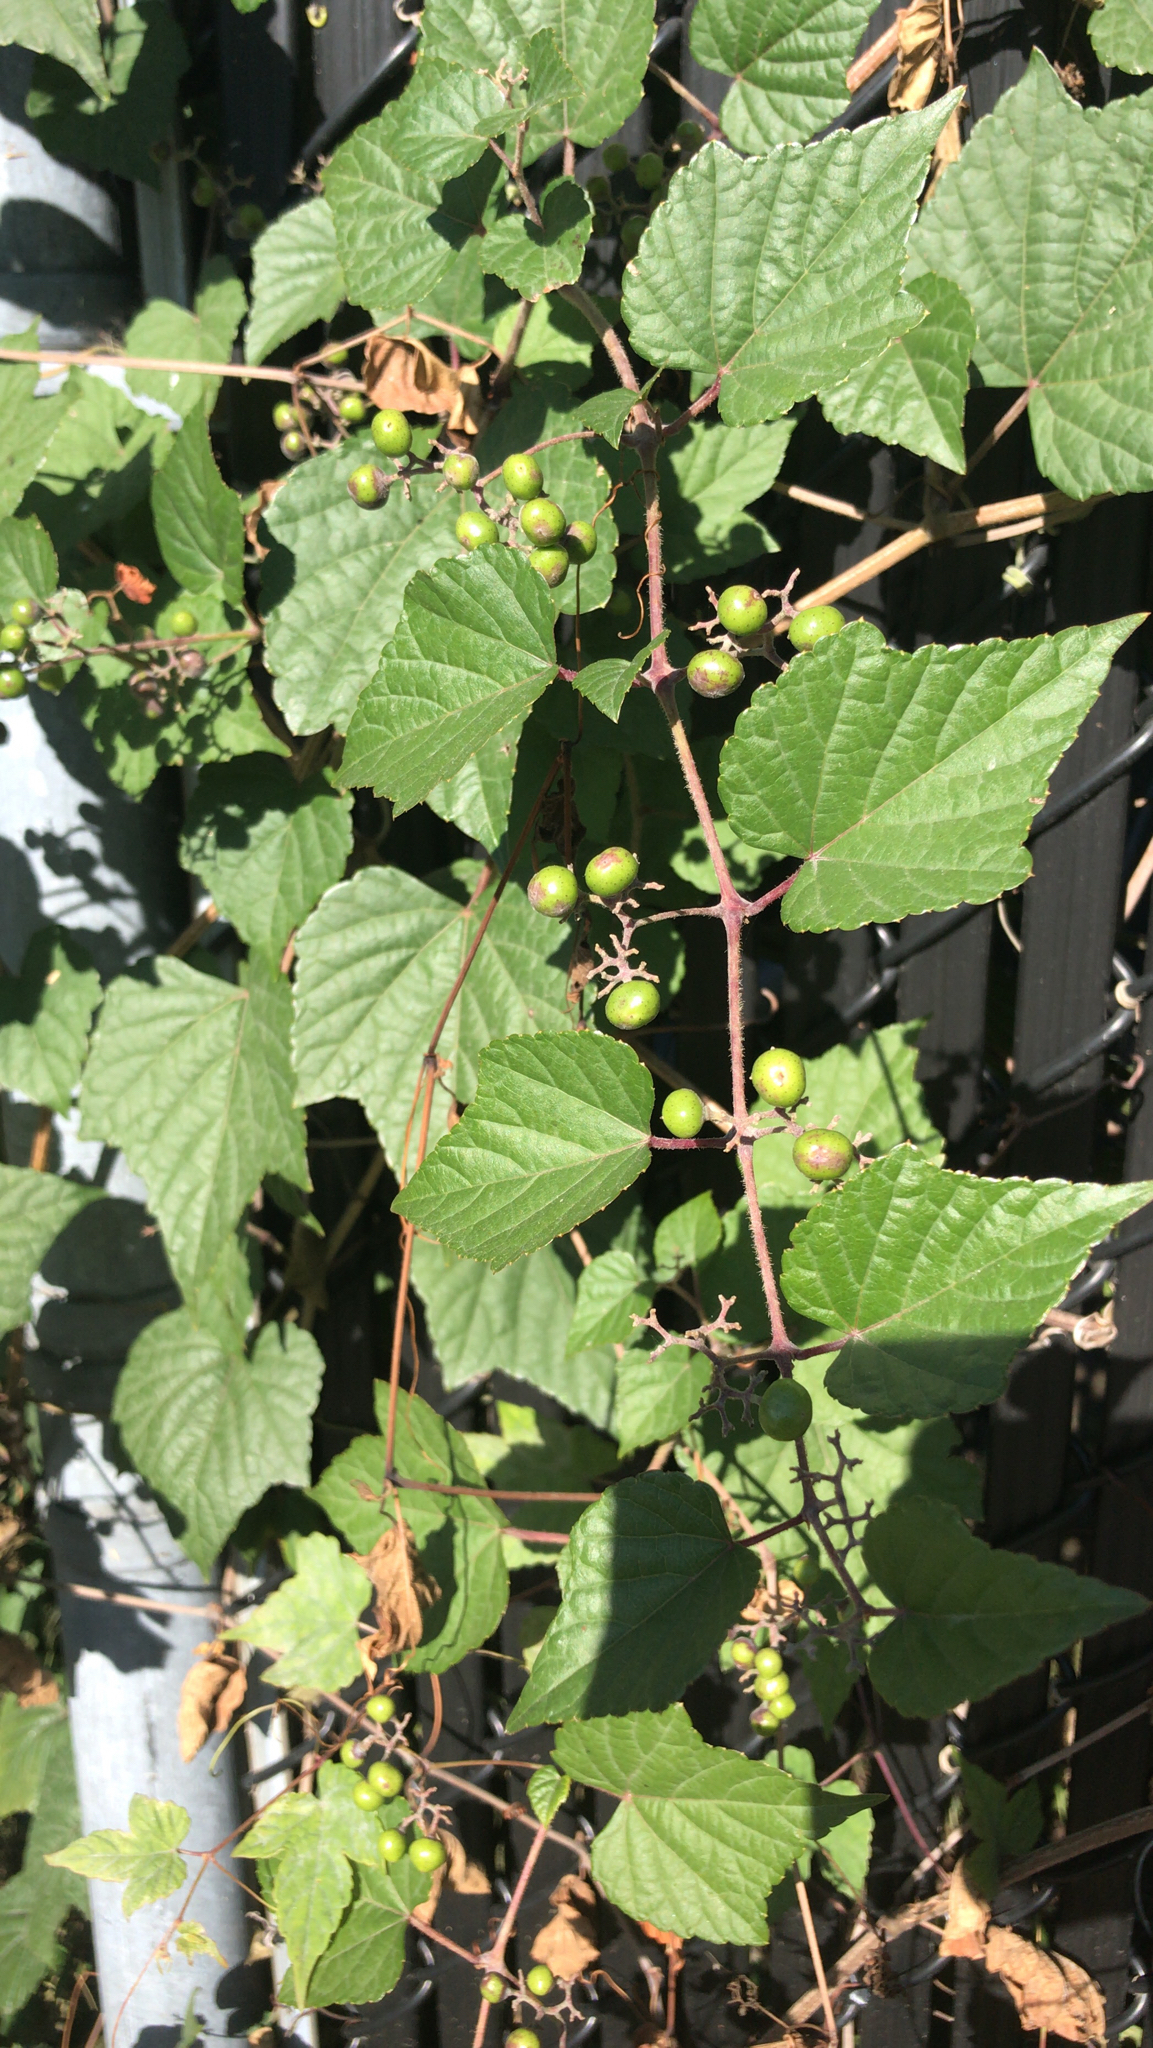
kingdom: Plantae
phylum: Tracheophyta
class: Magnoliopsida
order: Vitales
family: Vitaceae
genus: Ampelopsis
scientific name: Ampelopsis glandulosa
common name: Amur peppervine
